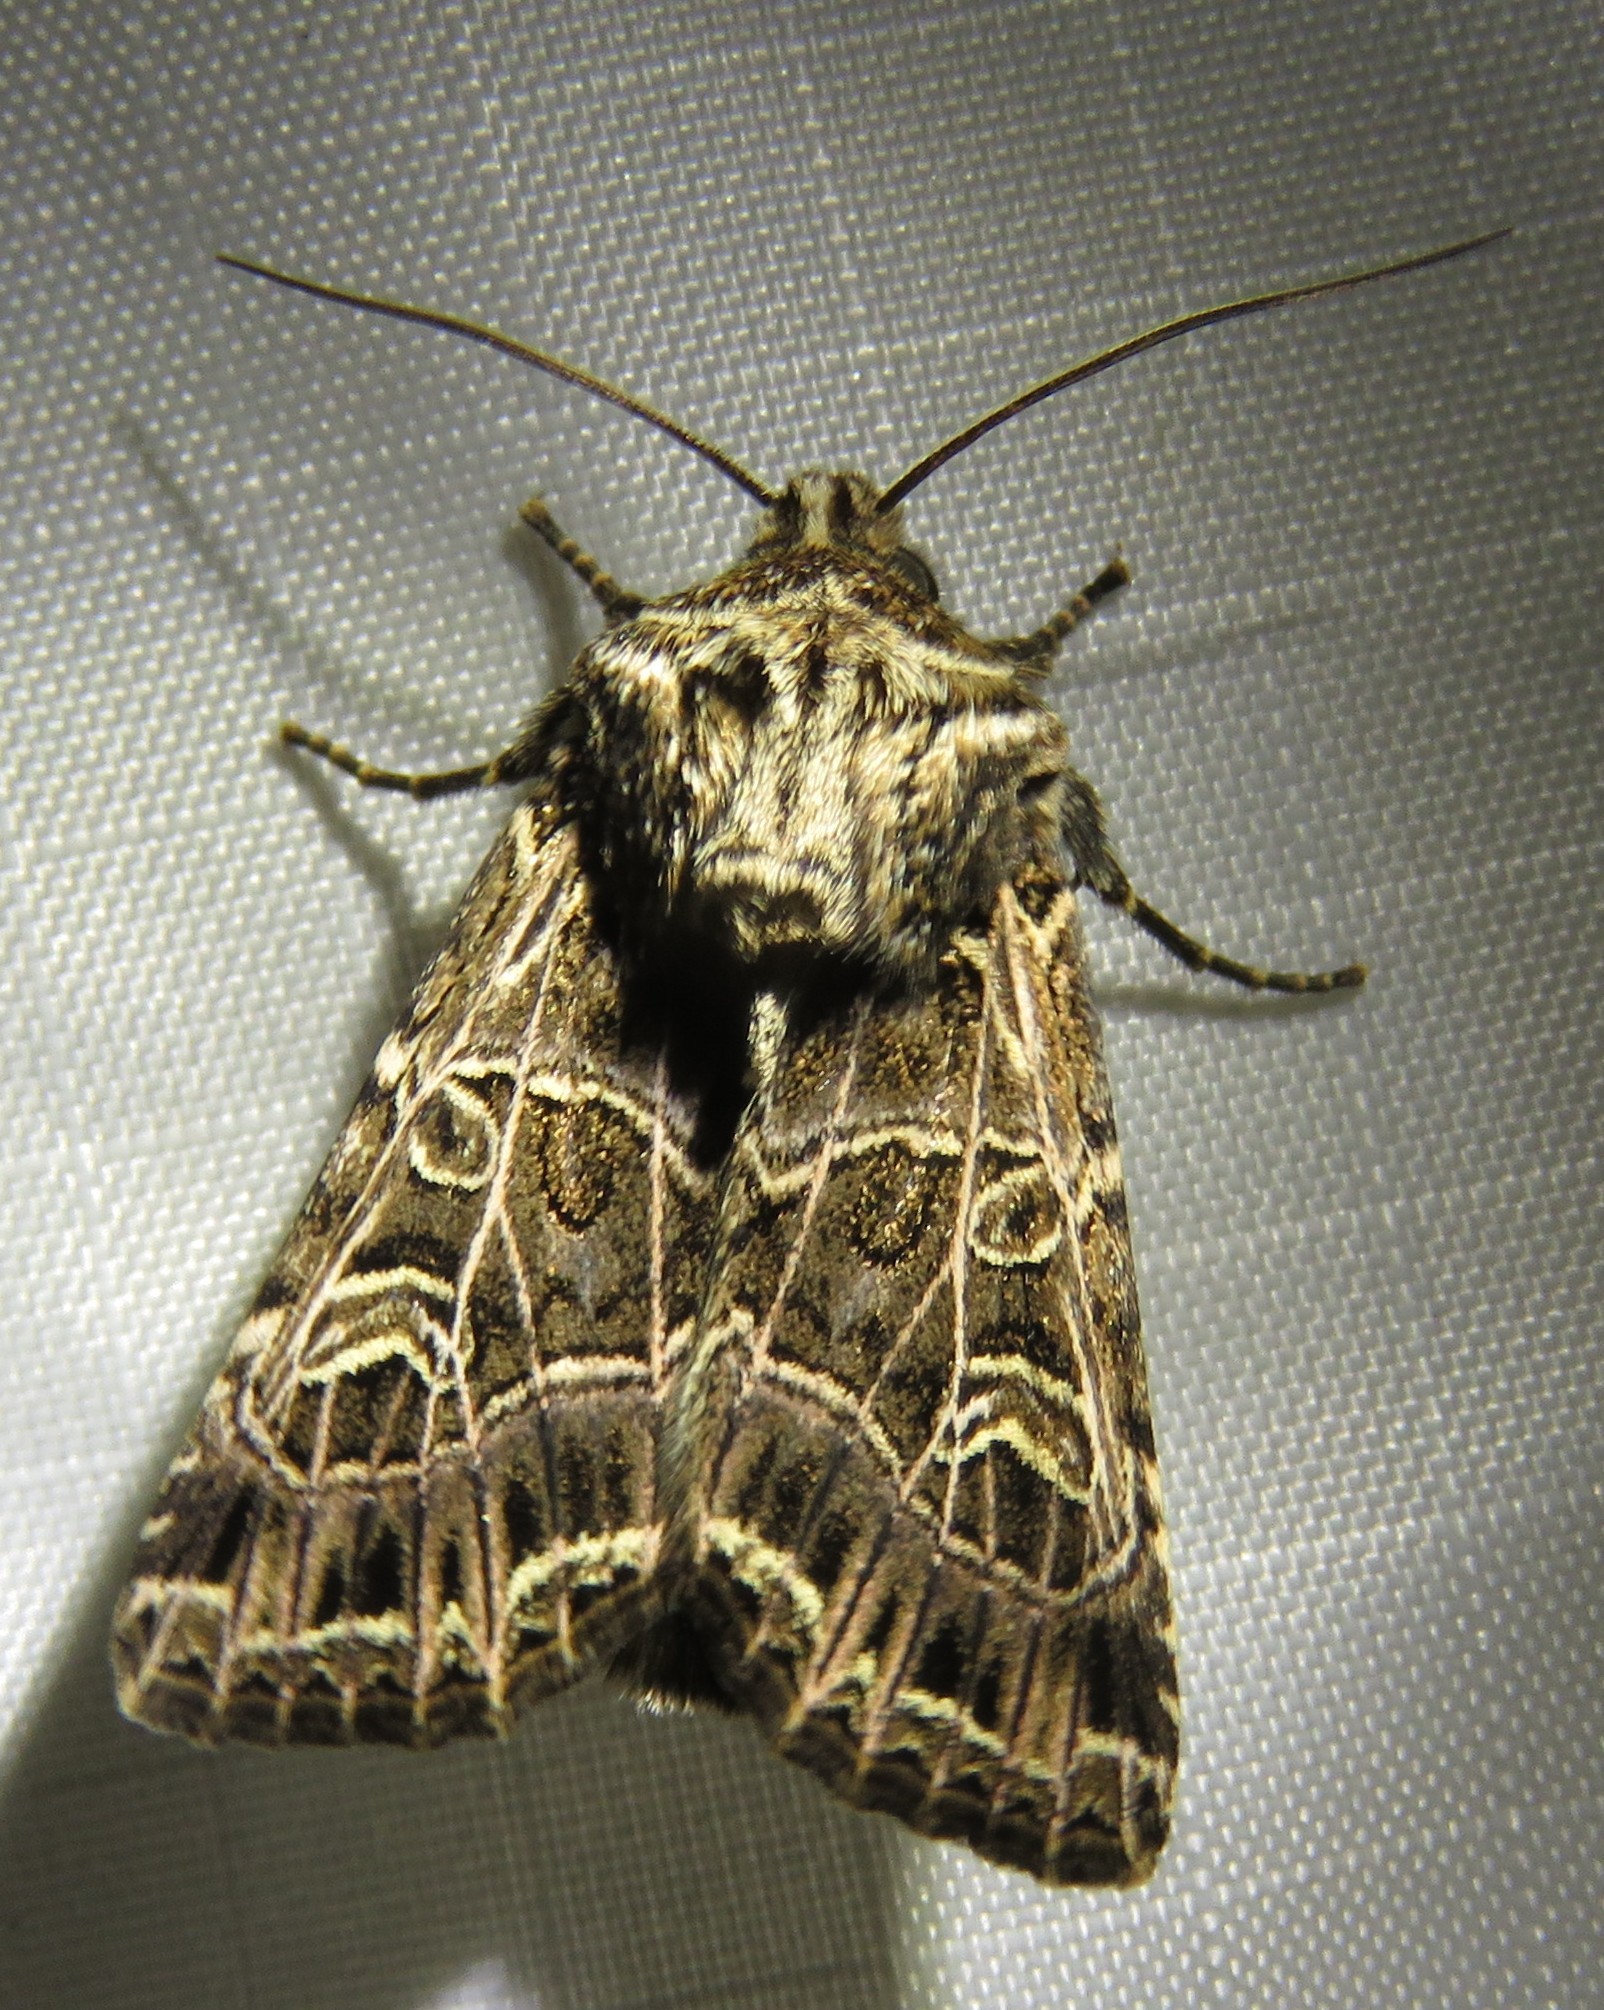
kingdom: Animalia
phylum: Arthropoda
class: Insecta
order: Lepidoptera
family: Noctuidae
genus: Sideridis
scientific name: Sideridis reticulata
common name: Bordered gothic
